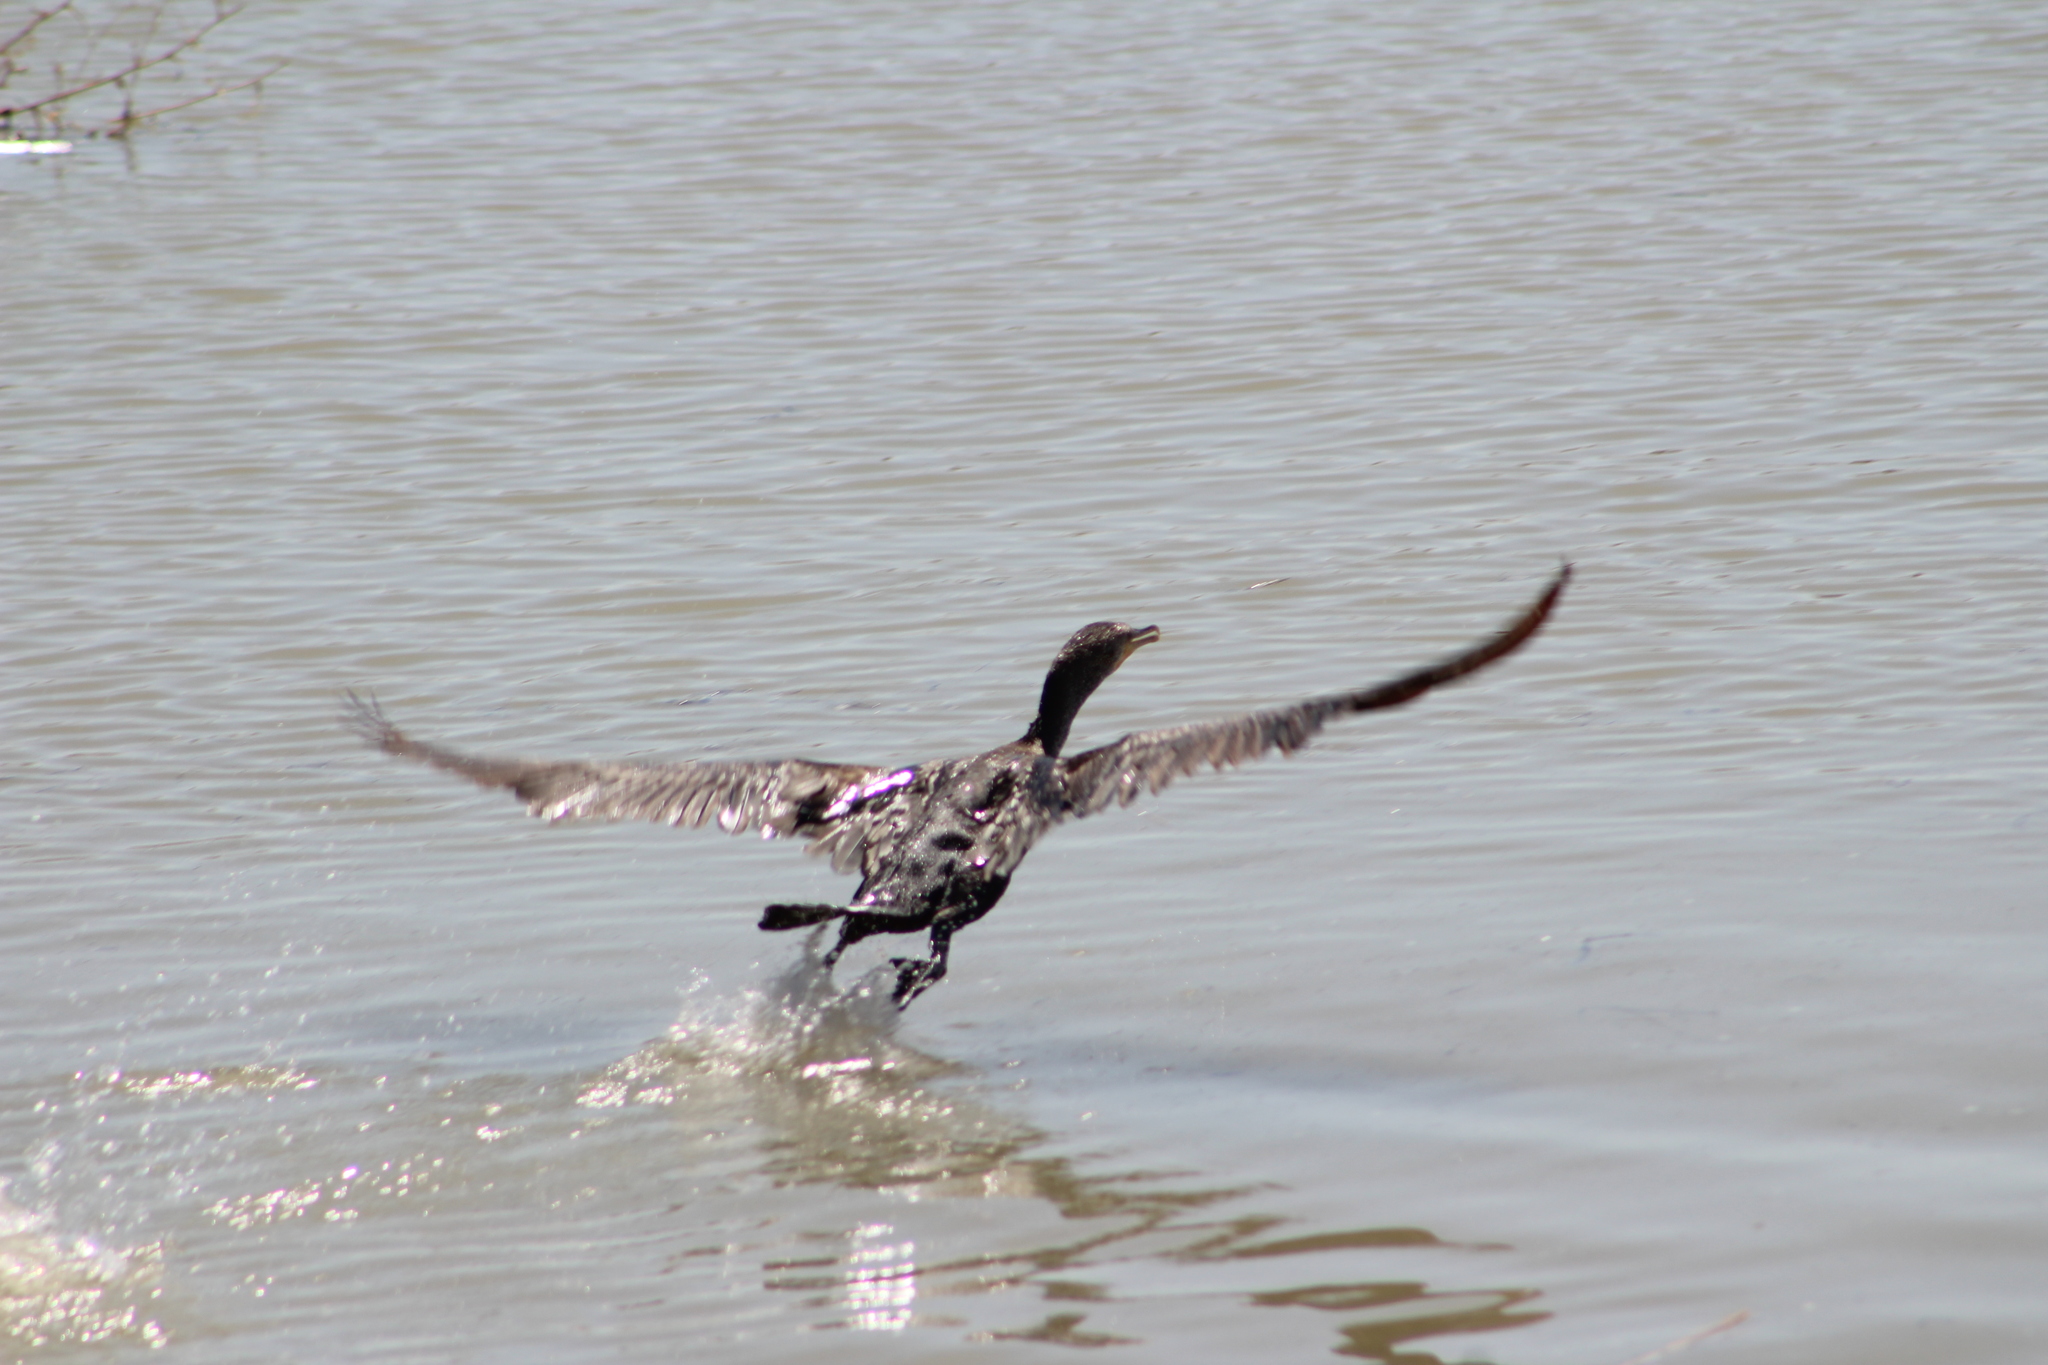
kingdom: Animalia
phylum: Chordata
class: Aves
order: Suliformes
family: Phalacrocoracidae
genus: Phalacrocorax
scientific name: Phalacrocorax auritus
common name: Double-crested cormorant
